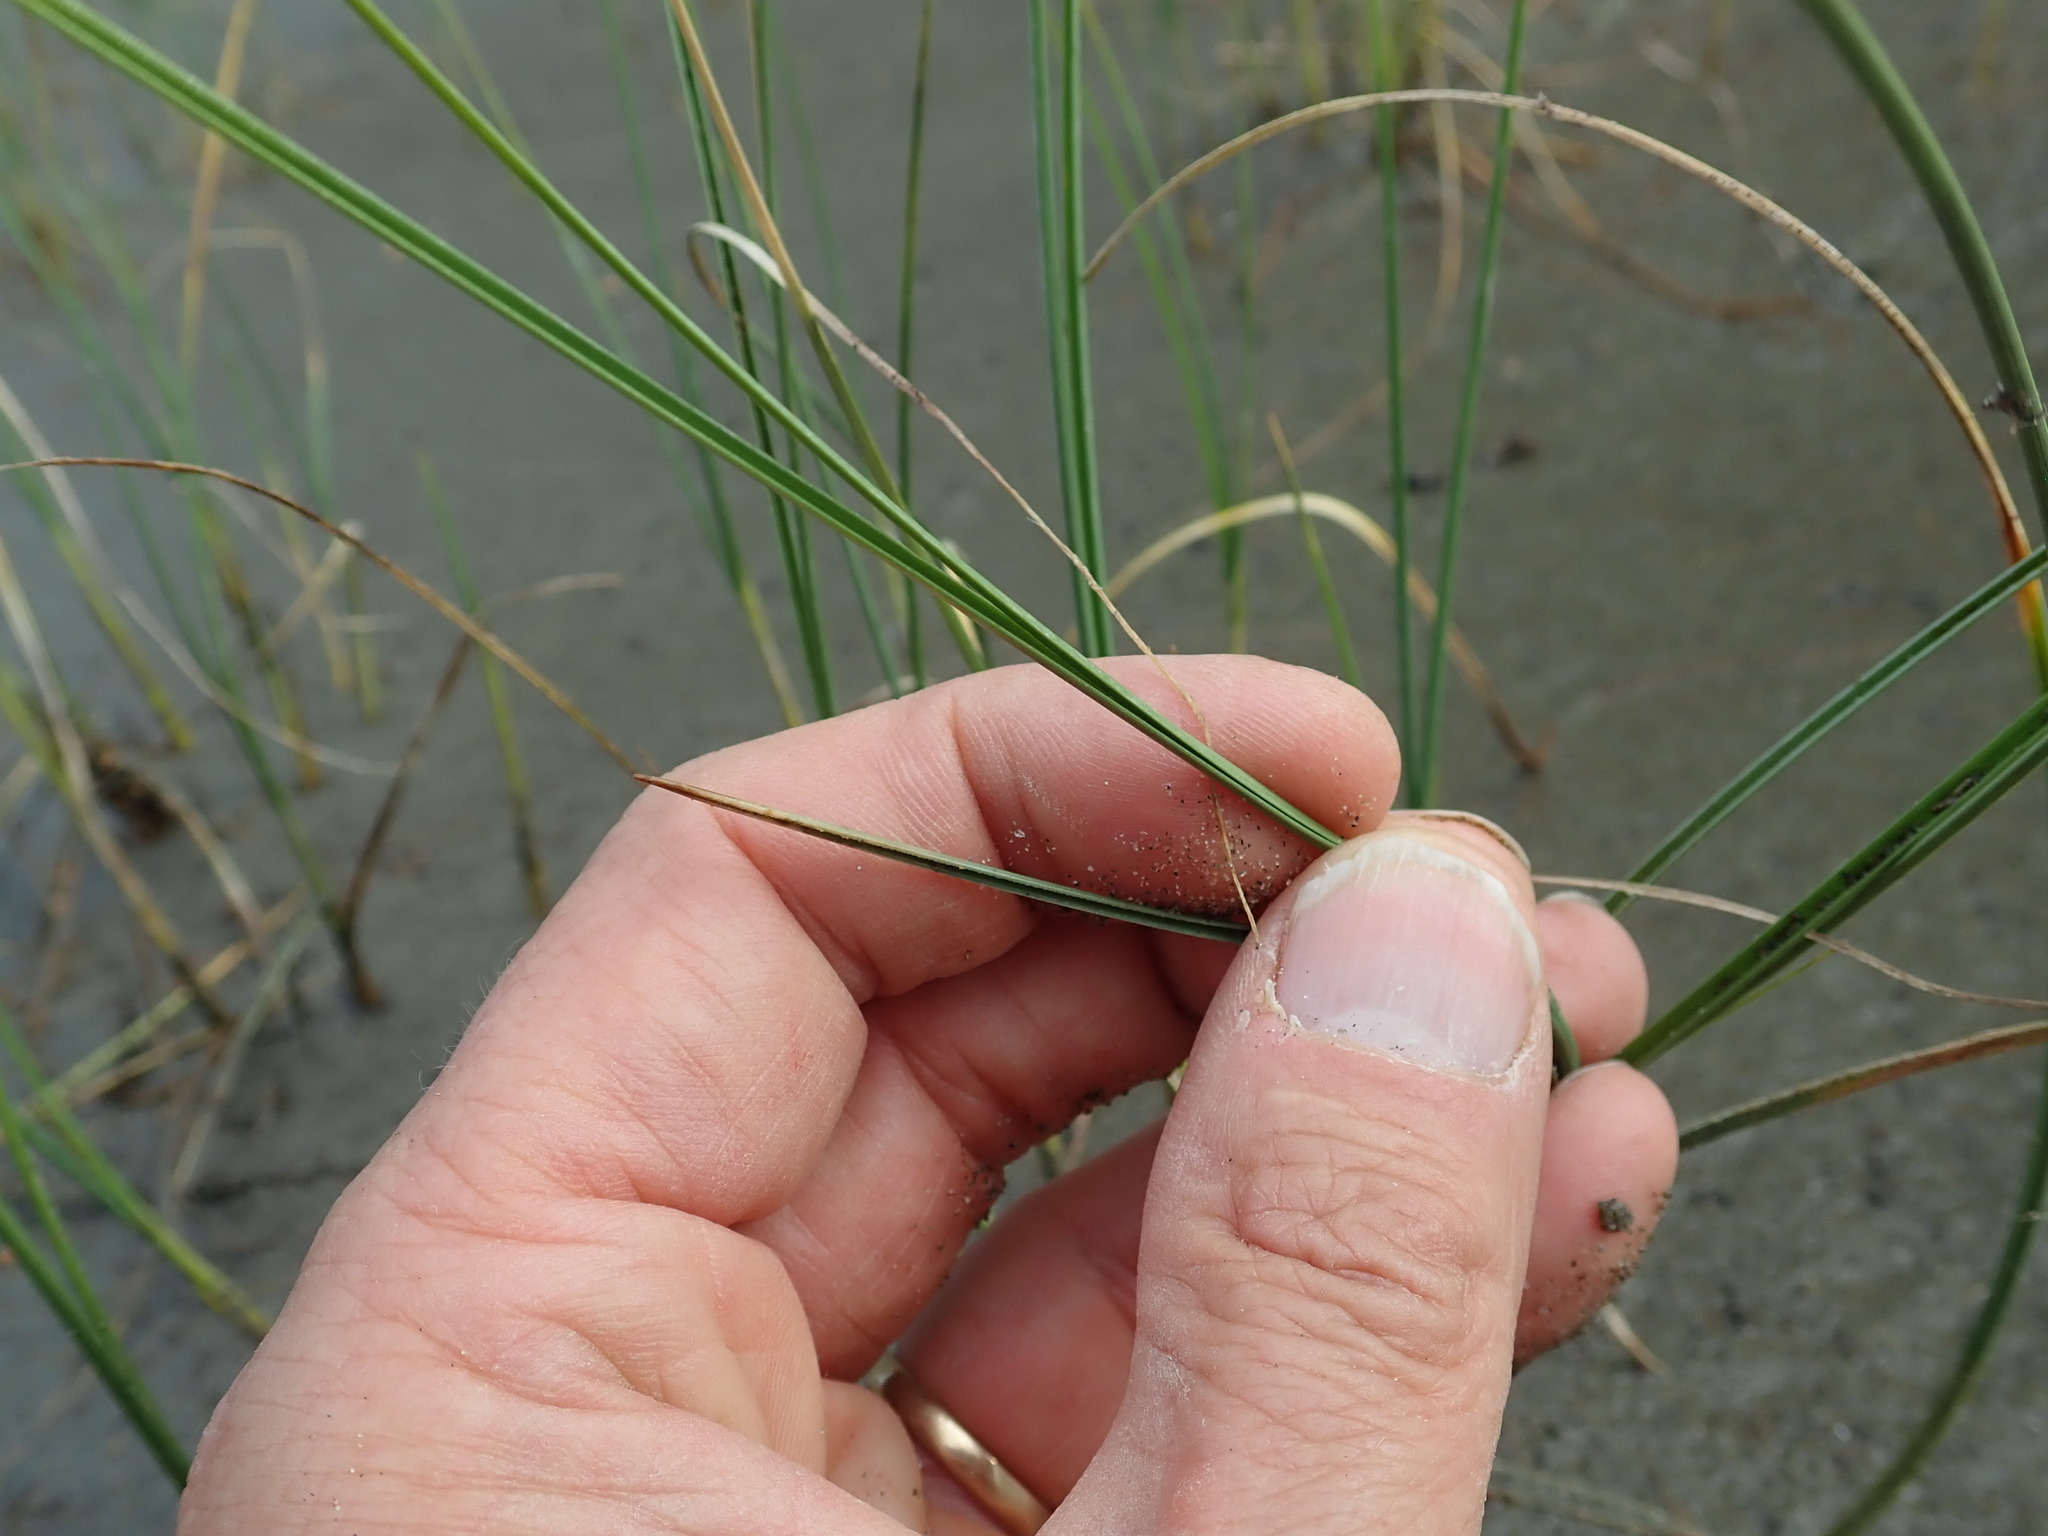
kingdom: Plantae
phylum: Tracheophyta
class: Liliopsida
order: Poales
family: Poaceae
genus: Calamagrostis
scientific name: Calamagrostis arenaria
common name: European beachgrass
